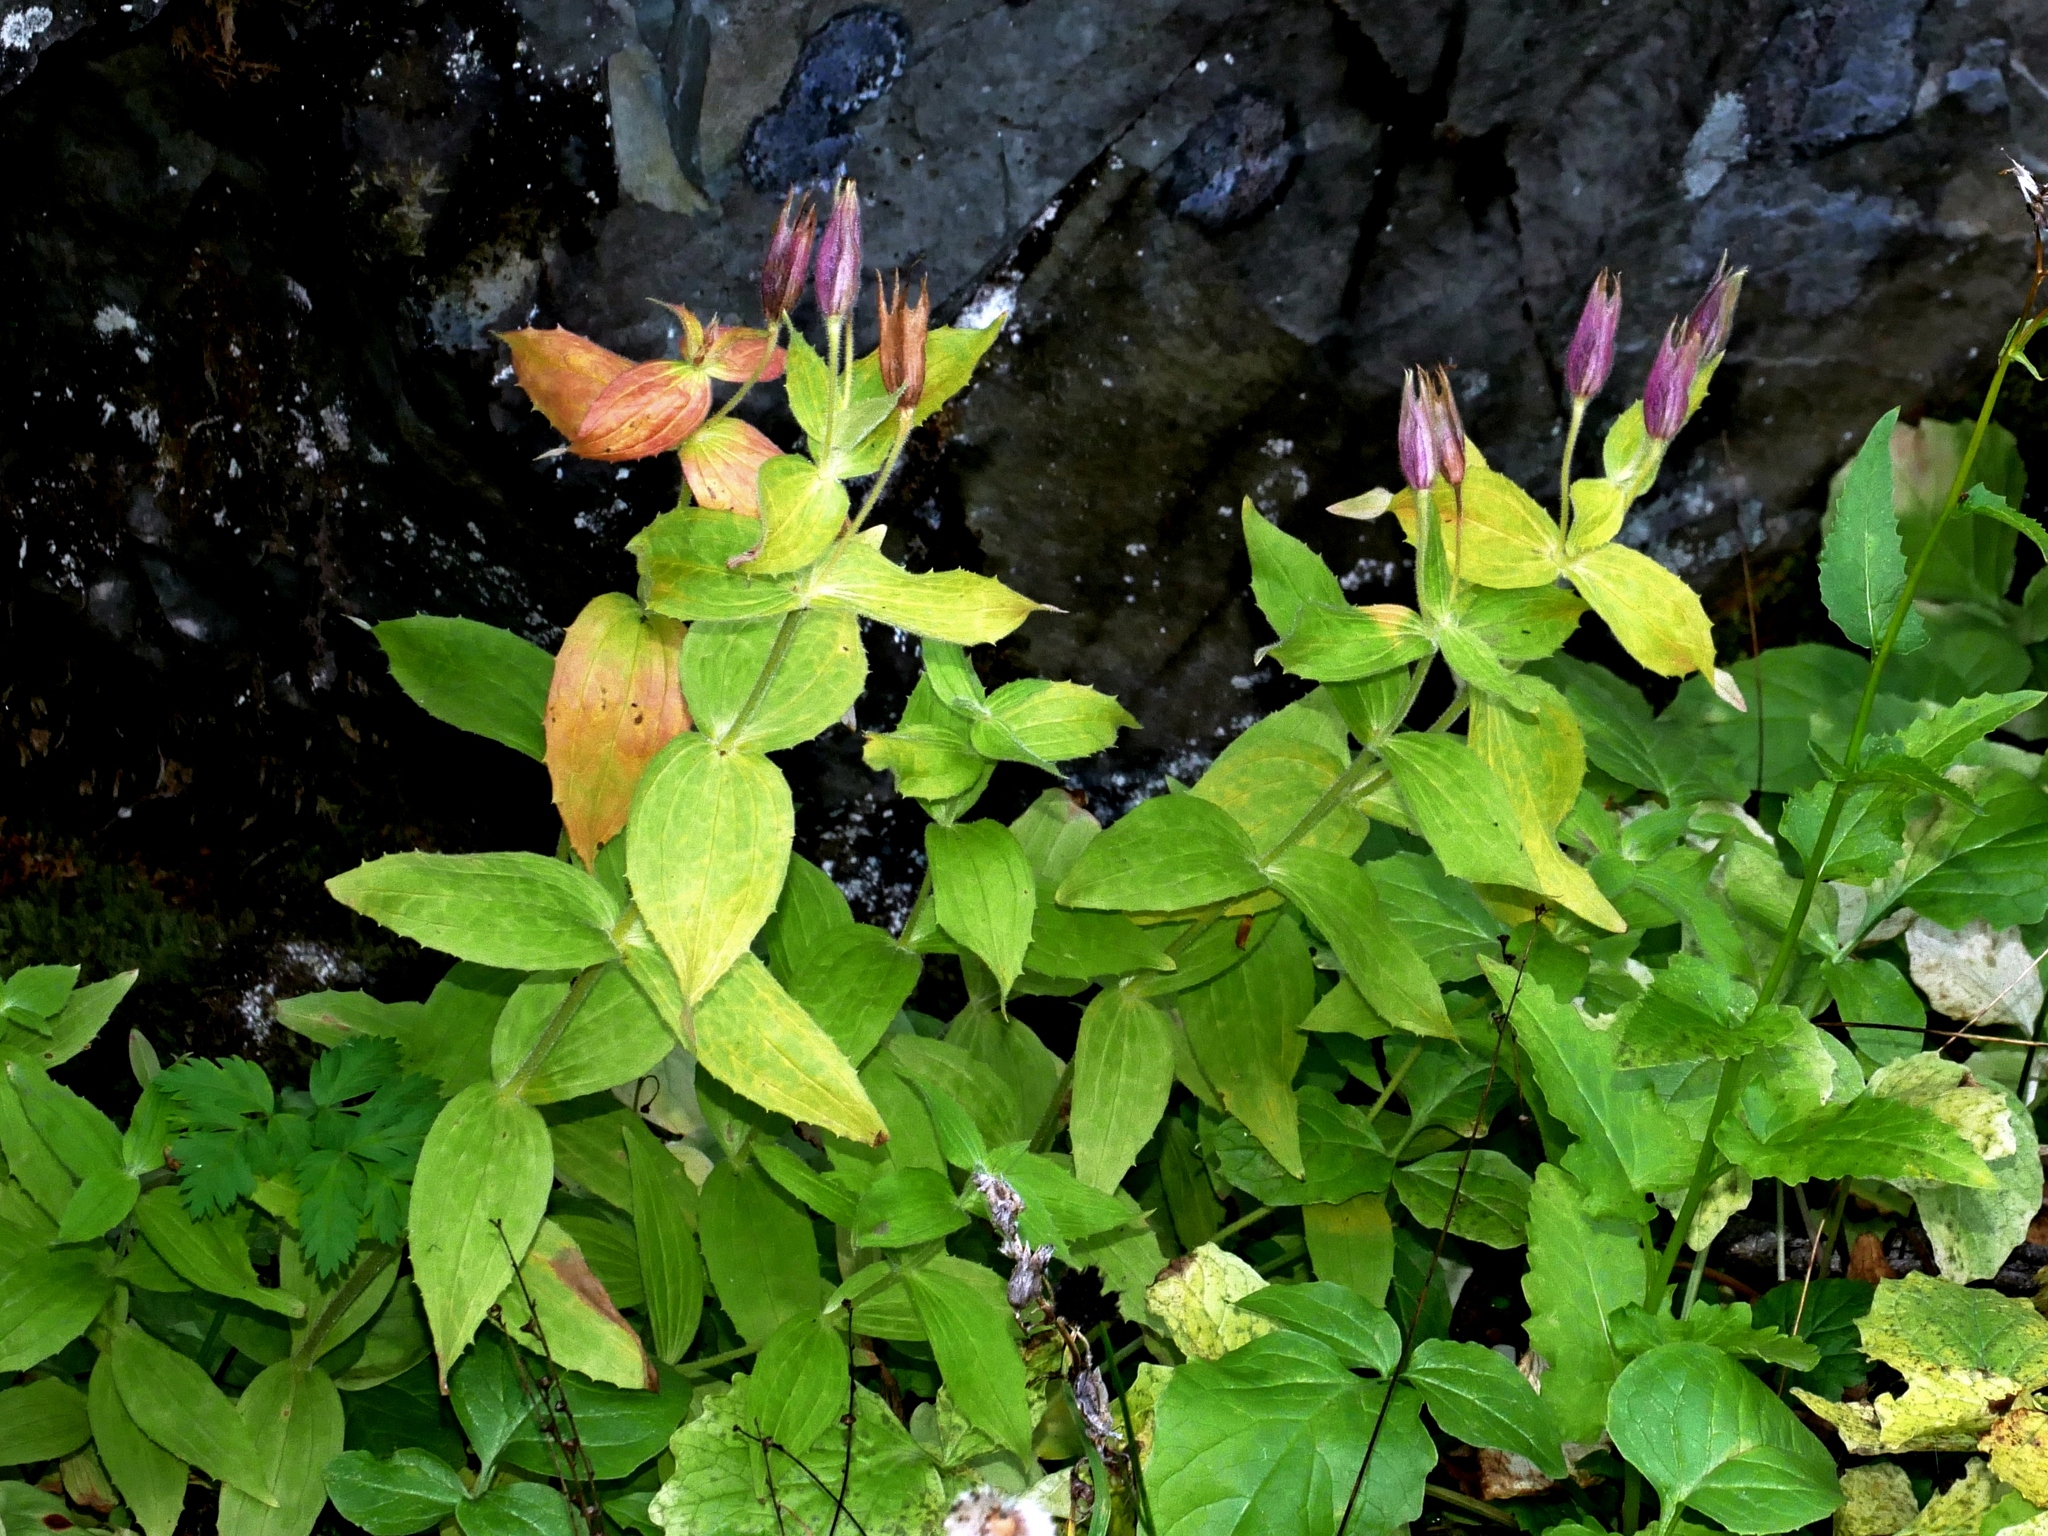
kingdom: Plantae
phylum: Tracheophyta
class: Magnoliopsida
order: Lamiales
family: Phrymaceae
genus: Erythranthe
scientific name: Erythranthe lewisii
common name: Lewis's monkey-flower
